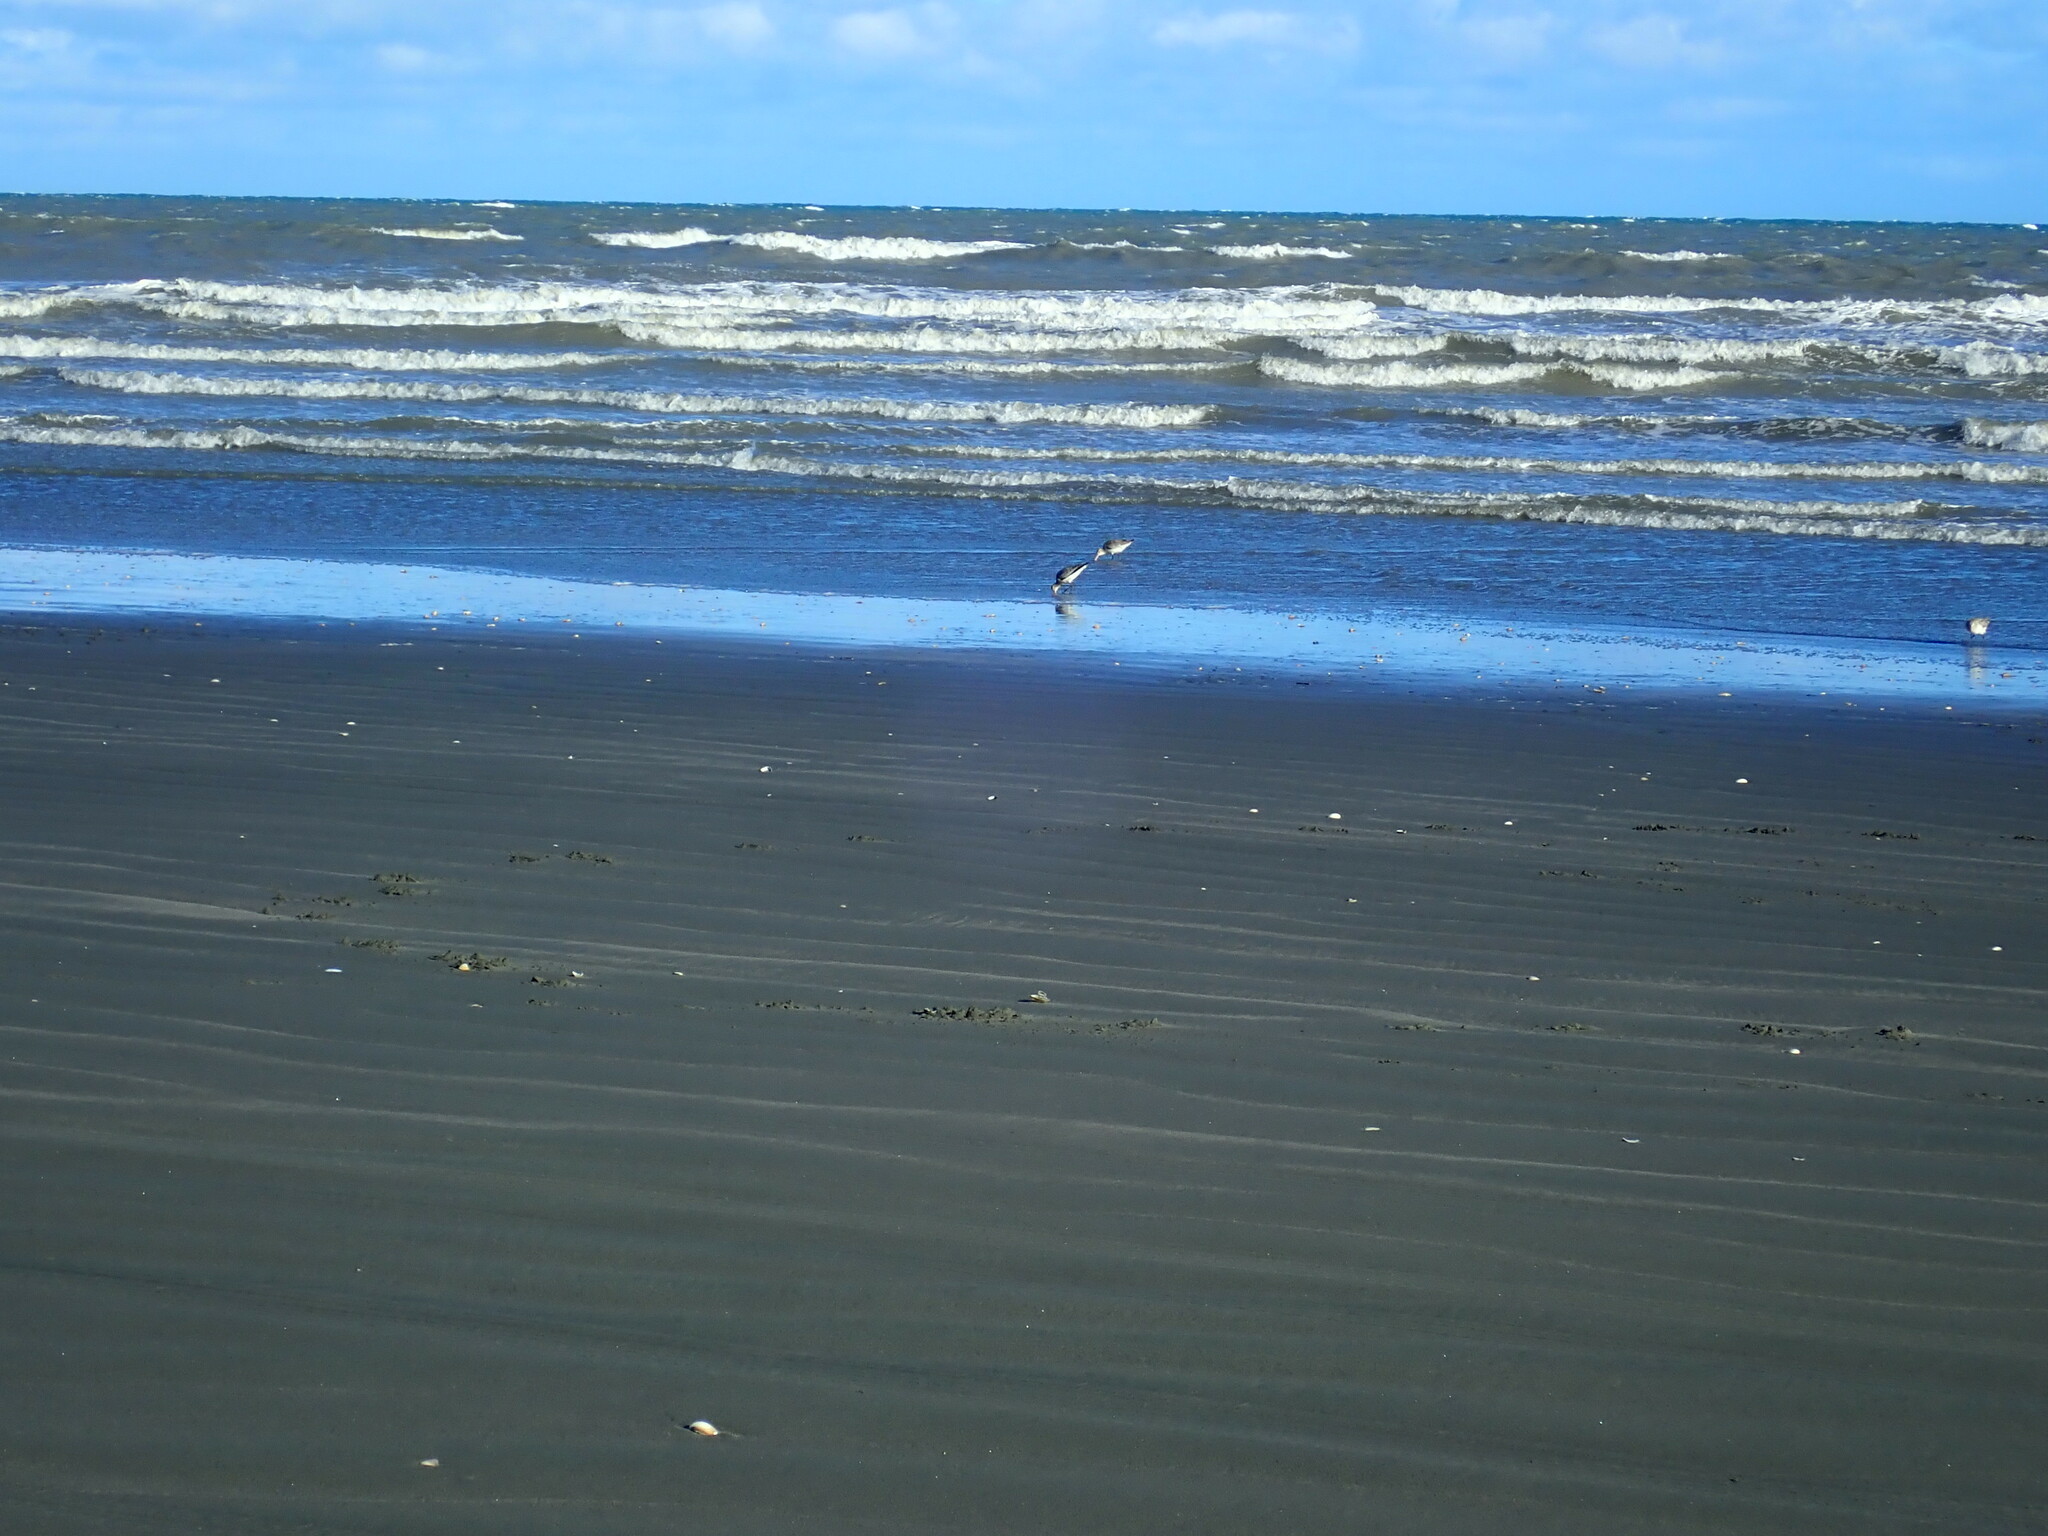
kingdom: Animalia
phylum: Chordata
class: Aves
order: Charadriiformes
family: Scolopacidae
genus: Limosa
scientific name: Limosa lapponica
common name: Bar-tailed godwit
